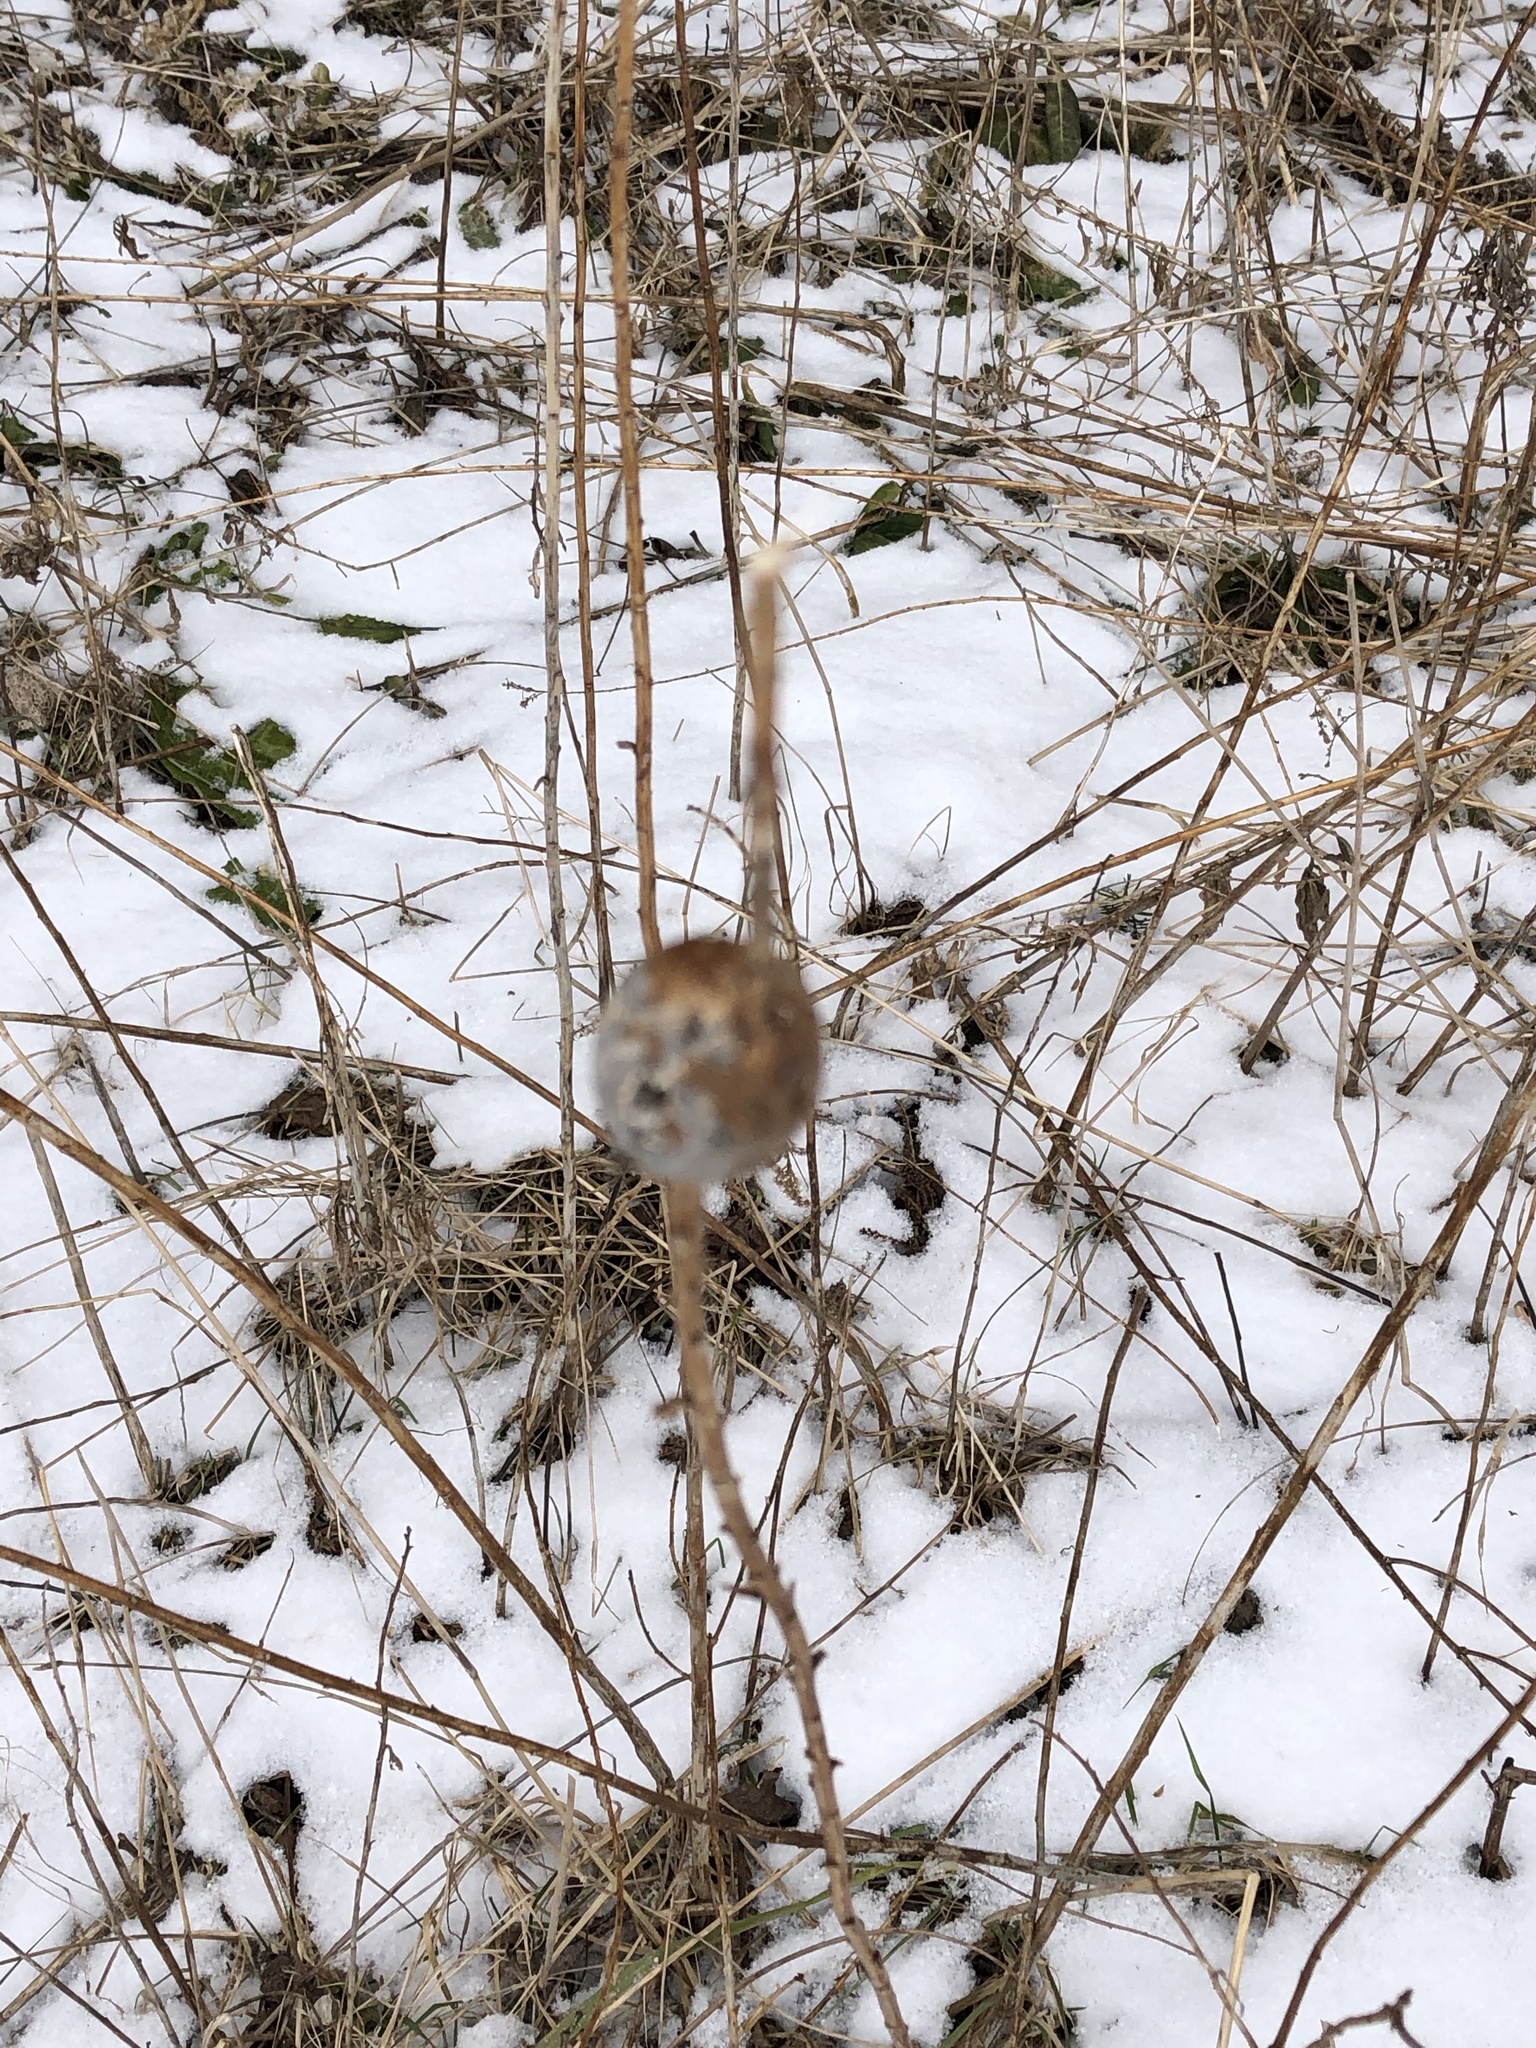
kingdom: Animalia
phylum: Arthropoda
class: Insecta
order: Diptera
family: Tephritidae
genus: Eurosta
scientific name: Eurosta solidaginis
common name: Goldenrod gall fly
